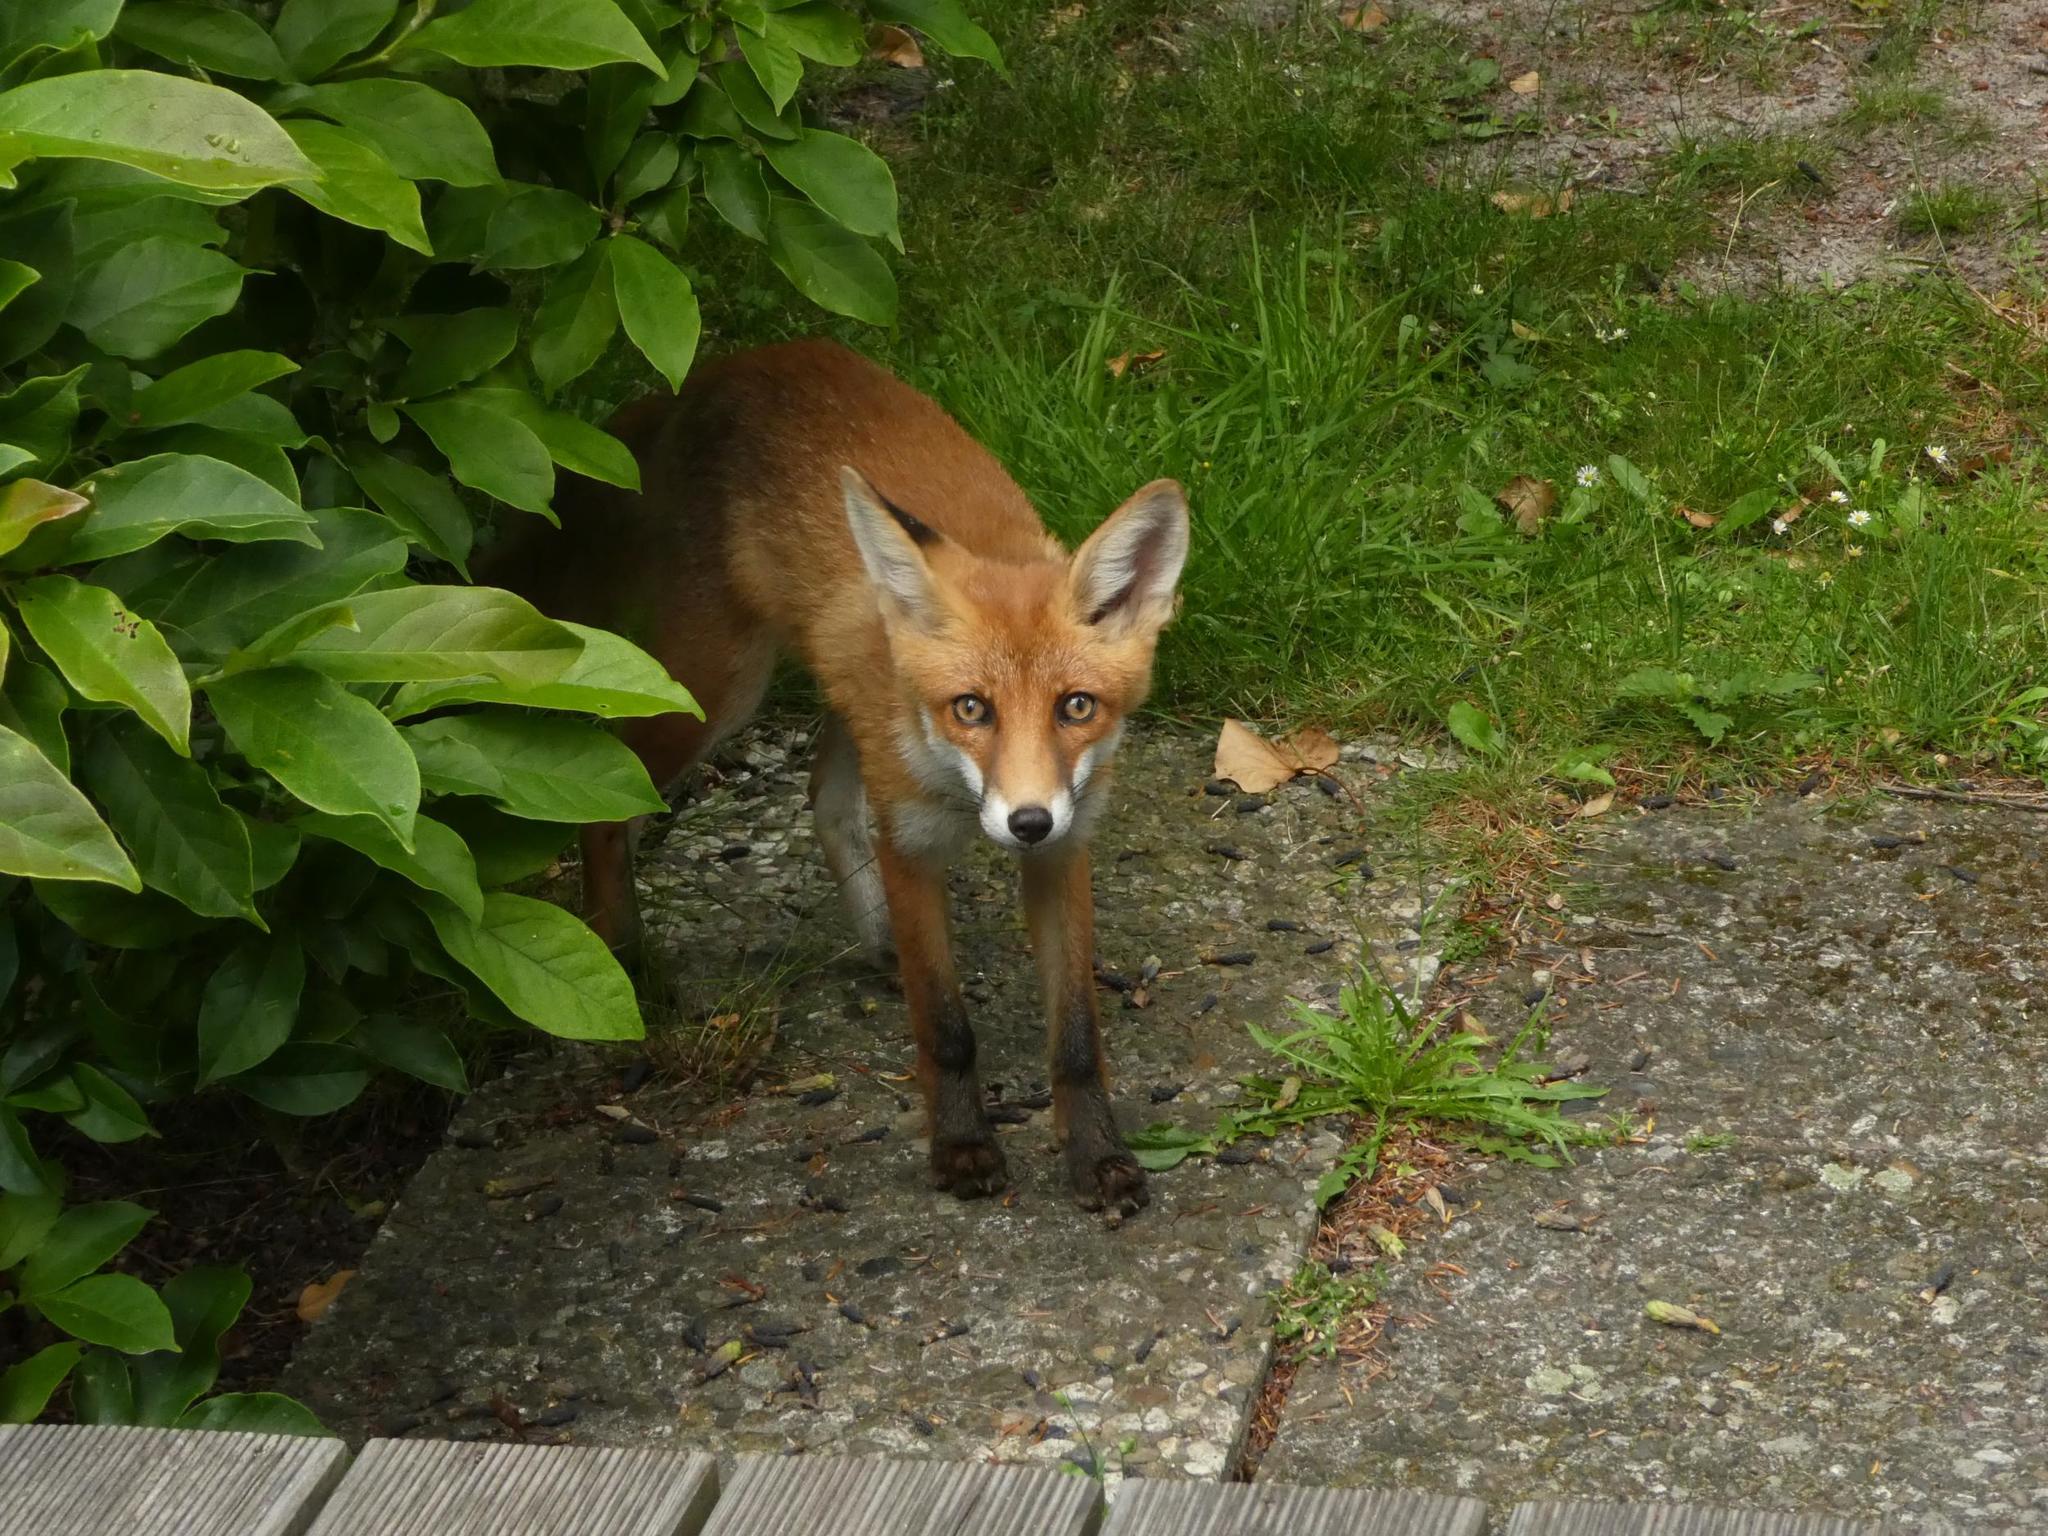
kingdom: Animalia
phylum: Chordata
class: Mammalia
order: Carnivora
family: Canidae
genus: Vulpes
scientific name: Vulpes vulpes
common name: Red fox
